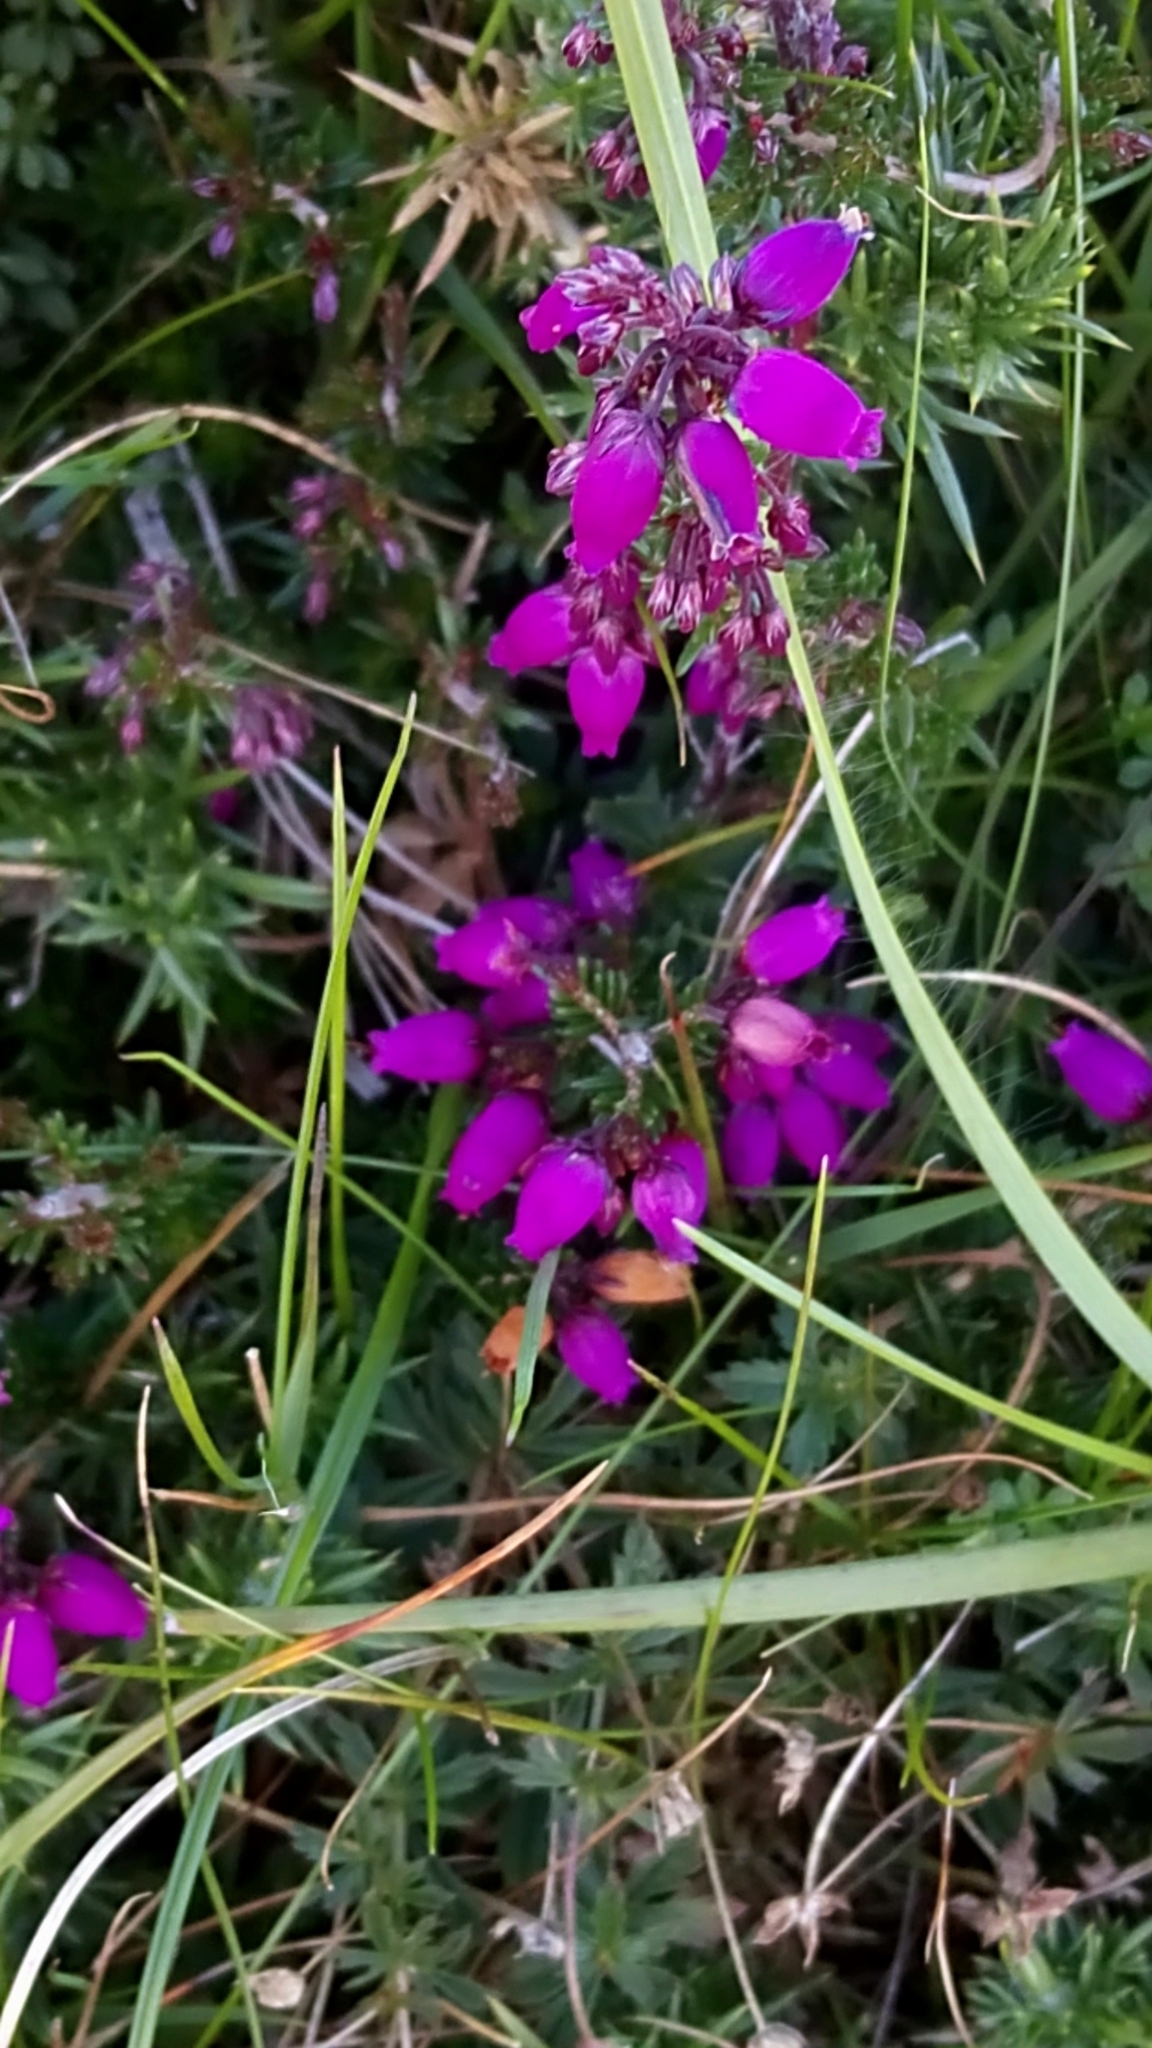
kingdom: Plantae
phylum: Tracheophyta
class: Magnoliopsida
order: Ericales
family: Ericaceae
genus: Erica
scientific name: Erica cinerea
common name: Bell heather
